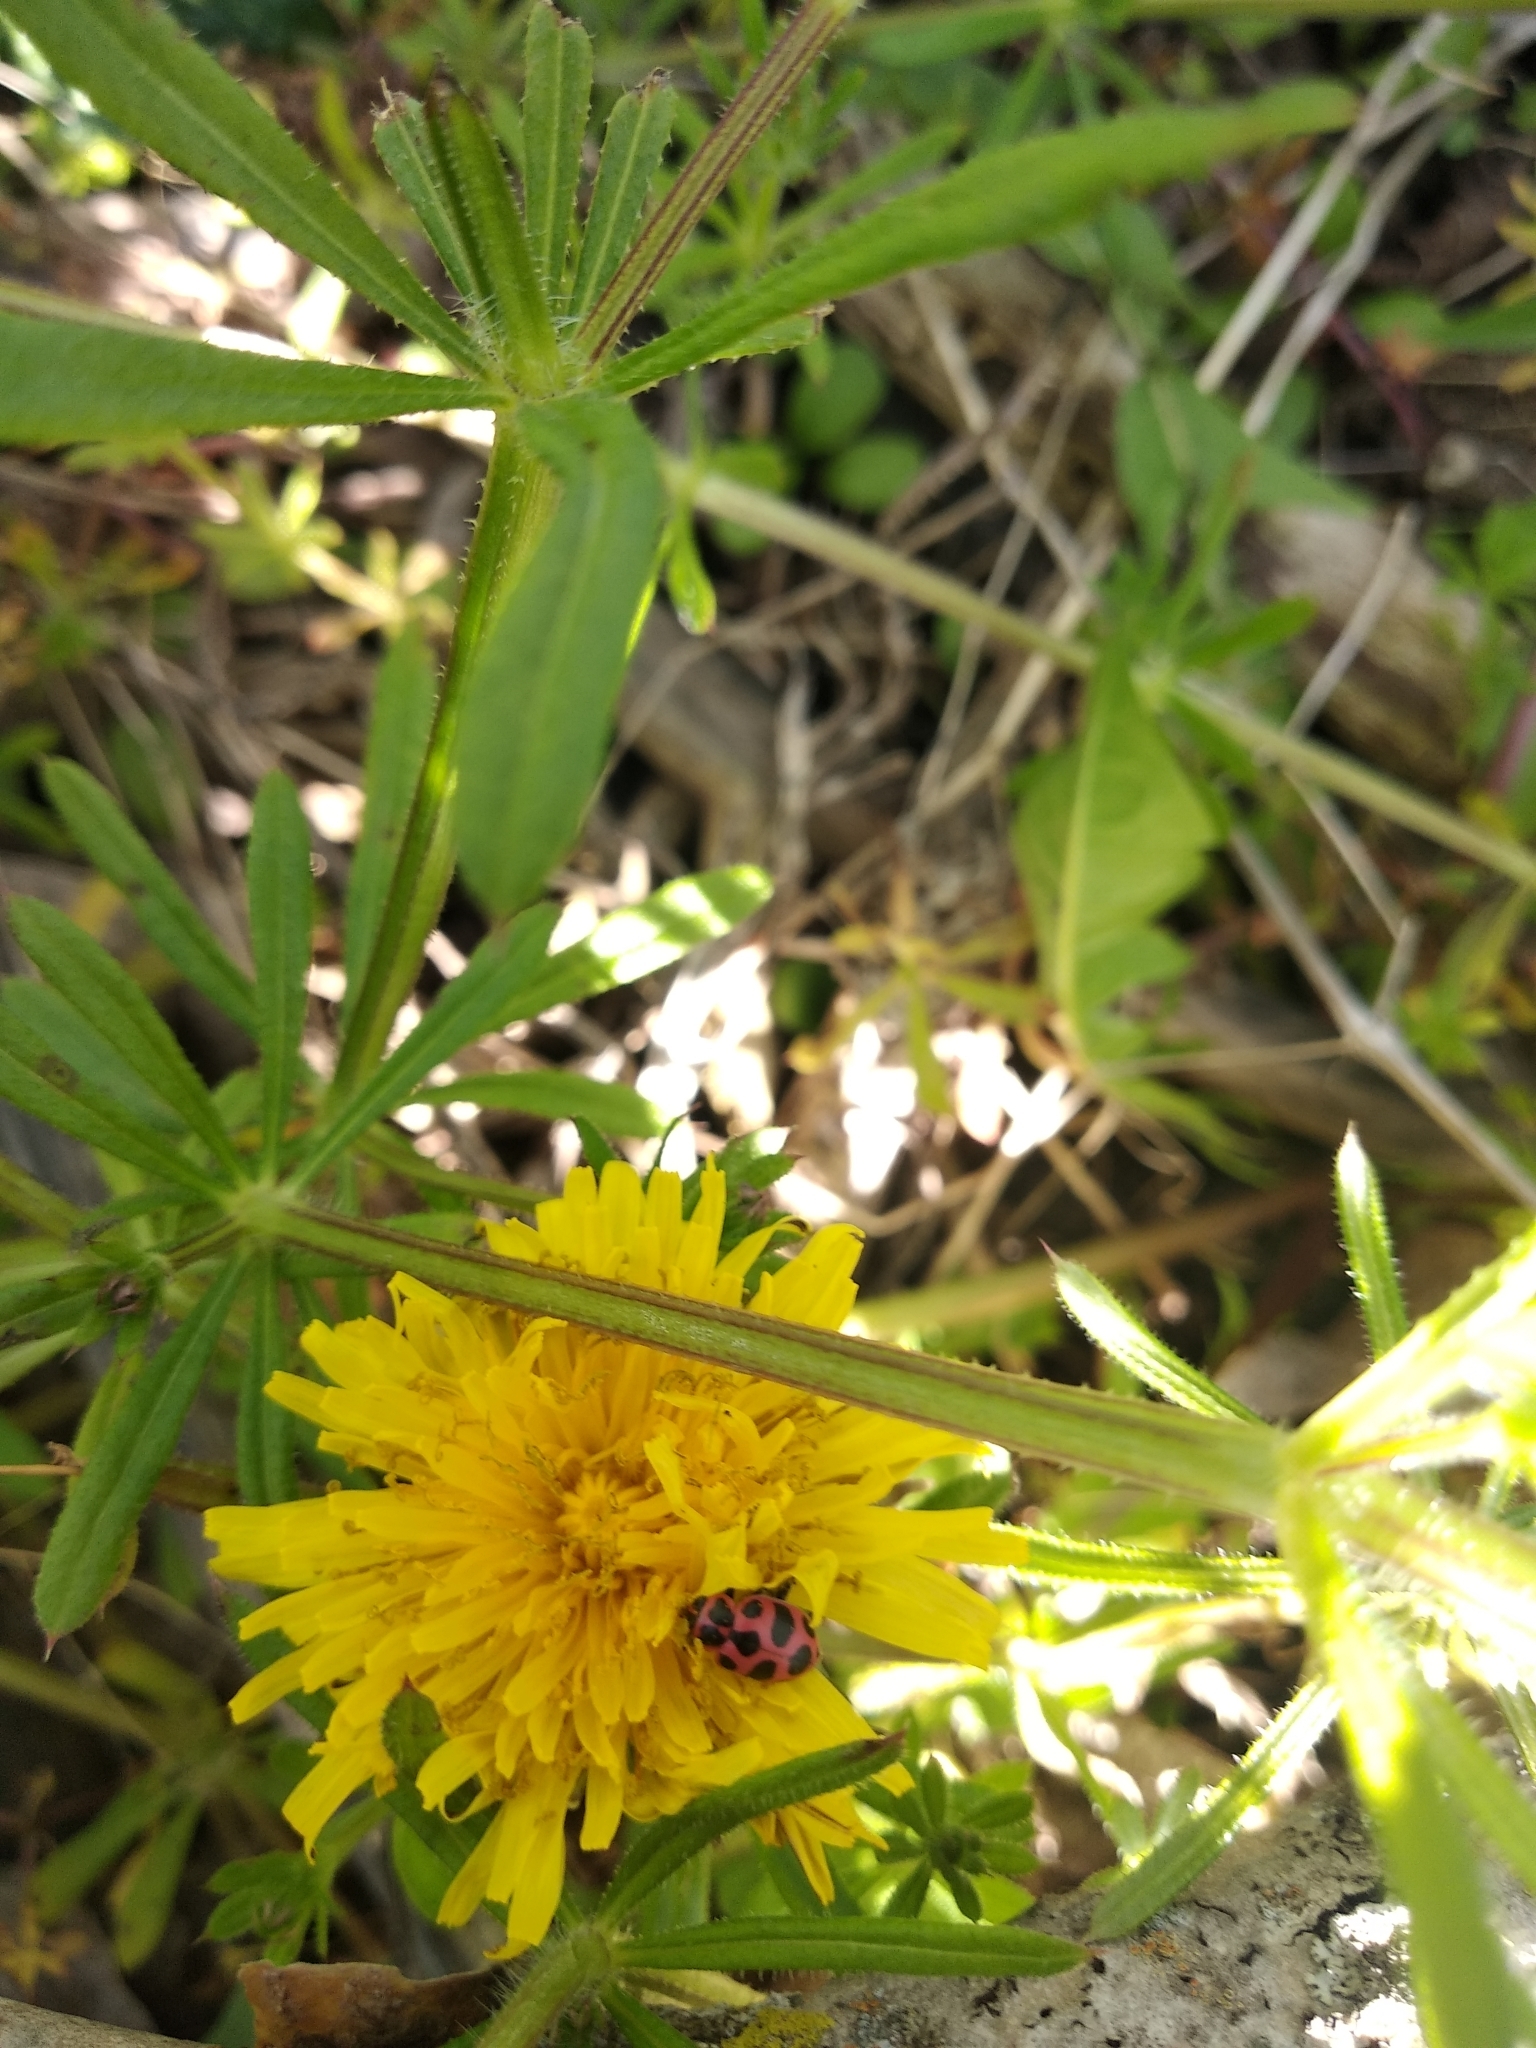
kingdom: Animalia
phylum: Arthropoda
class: Insecta
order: Coleoptera
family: Coccinellidae
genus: Coleomegilla
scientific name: Coleomegilla maculata
